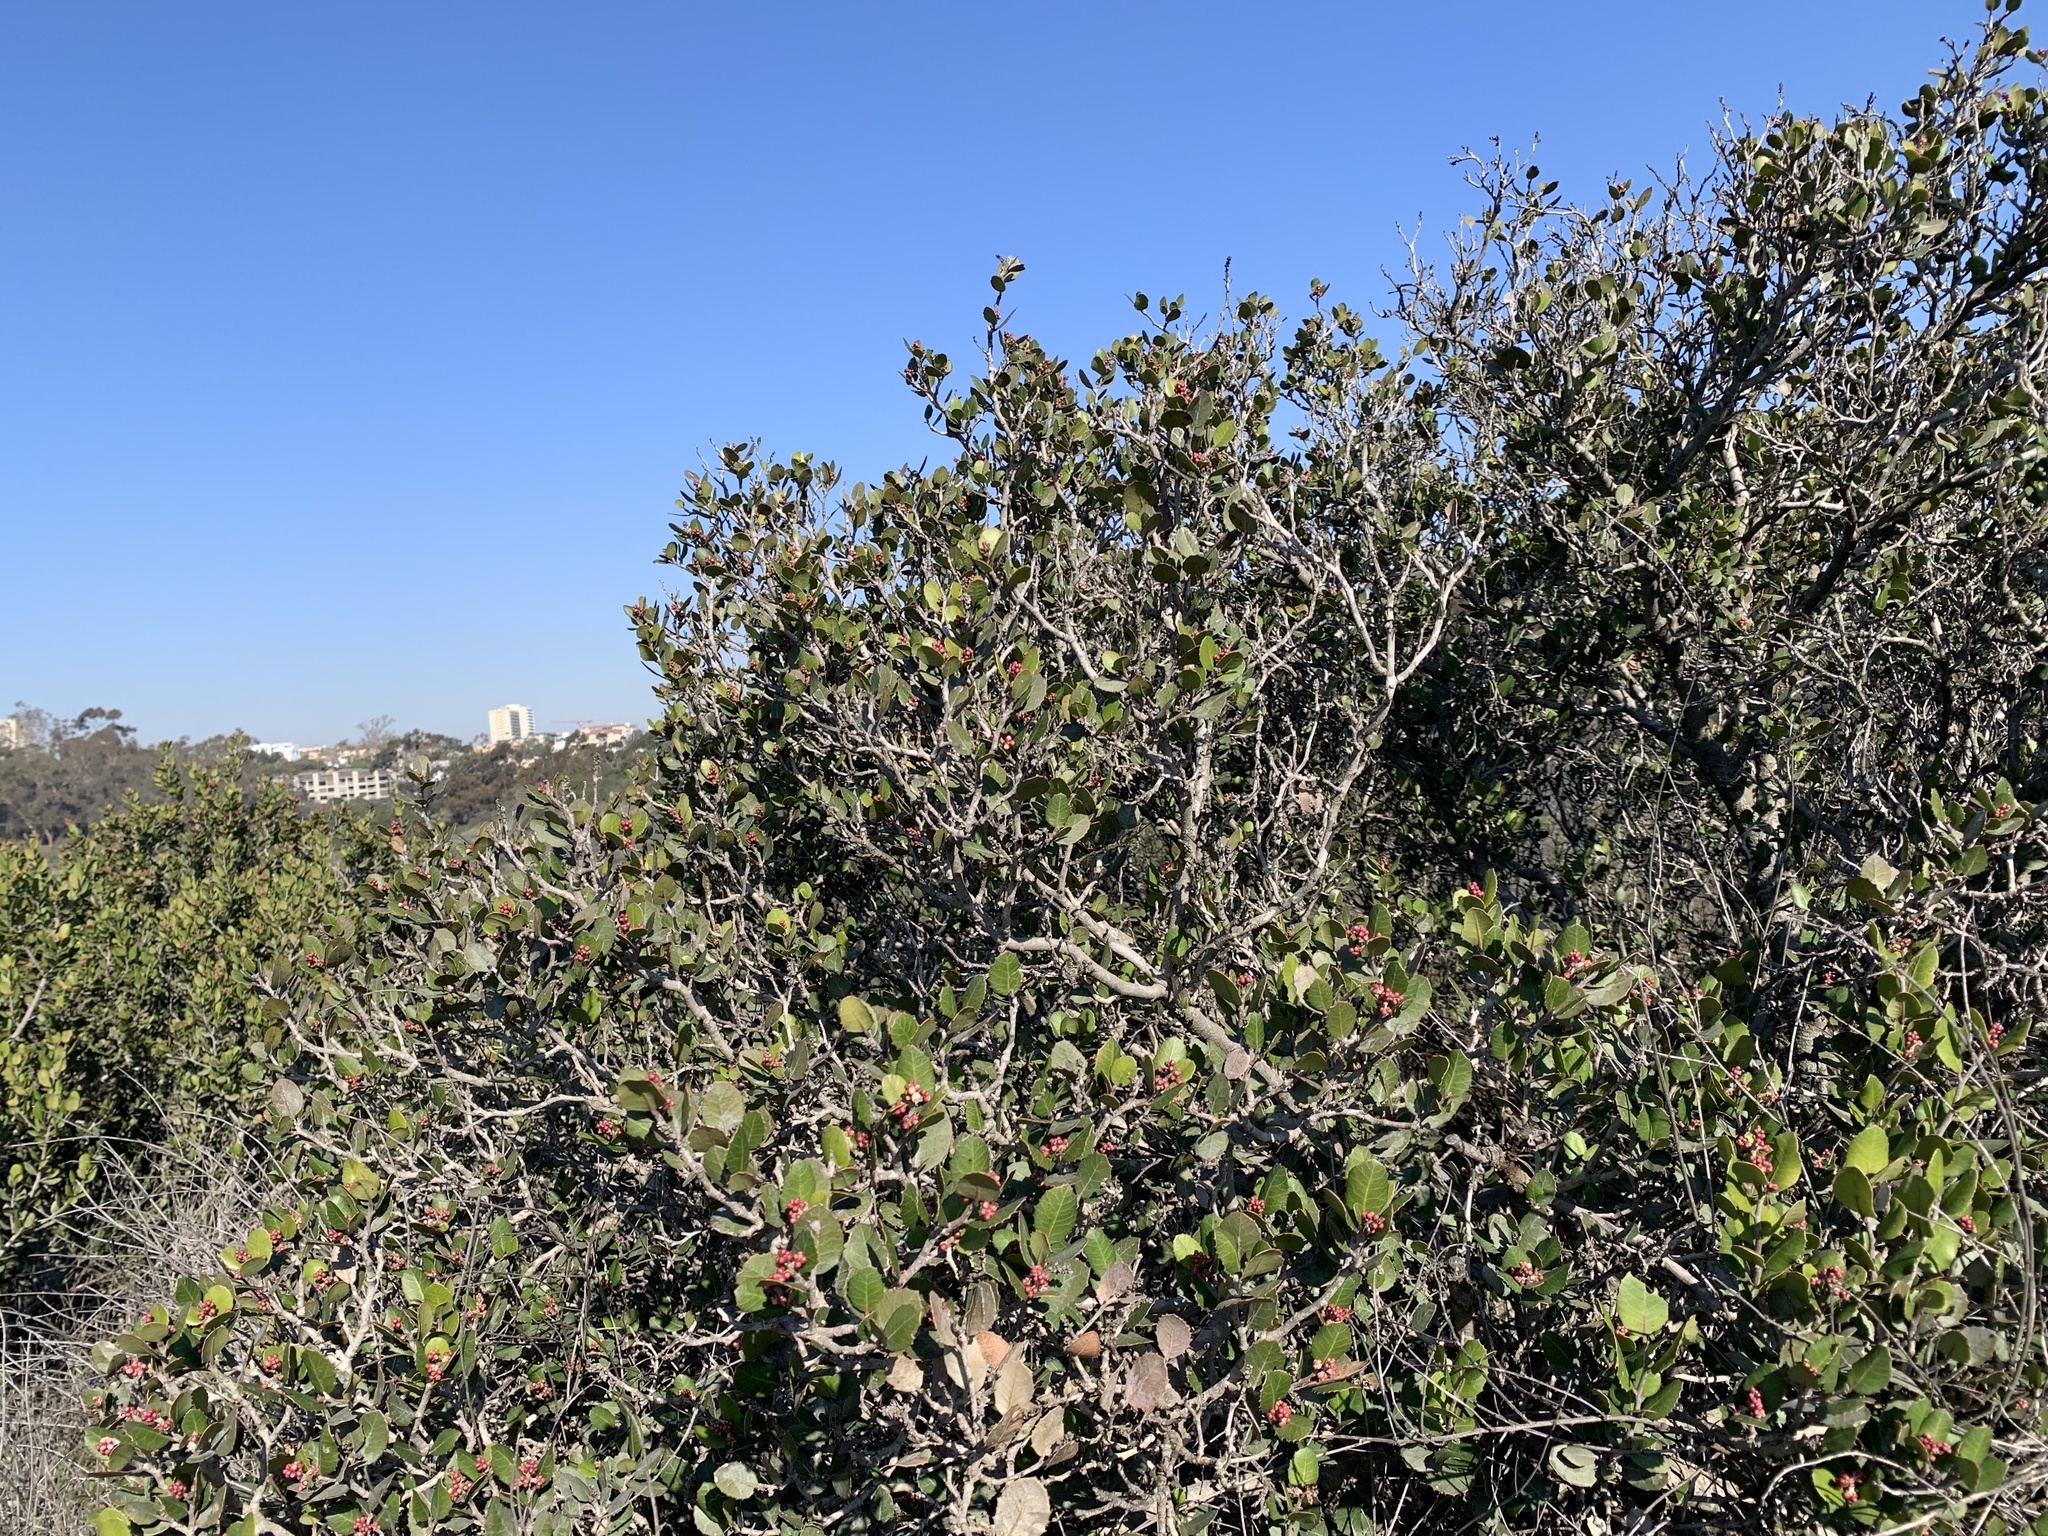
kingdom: Plantae
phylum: Tracheophyta
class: Magnoliopsida
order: Sapindales
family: Anacardiaceae
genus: Rhus
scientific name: Rhus integrifolia
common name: Lemonade sumac
